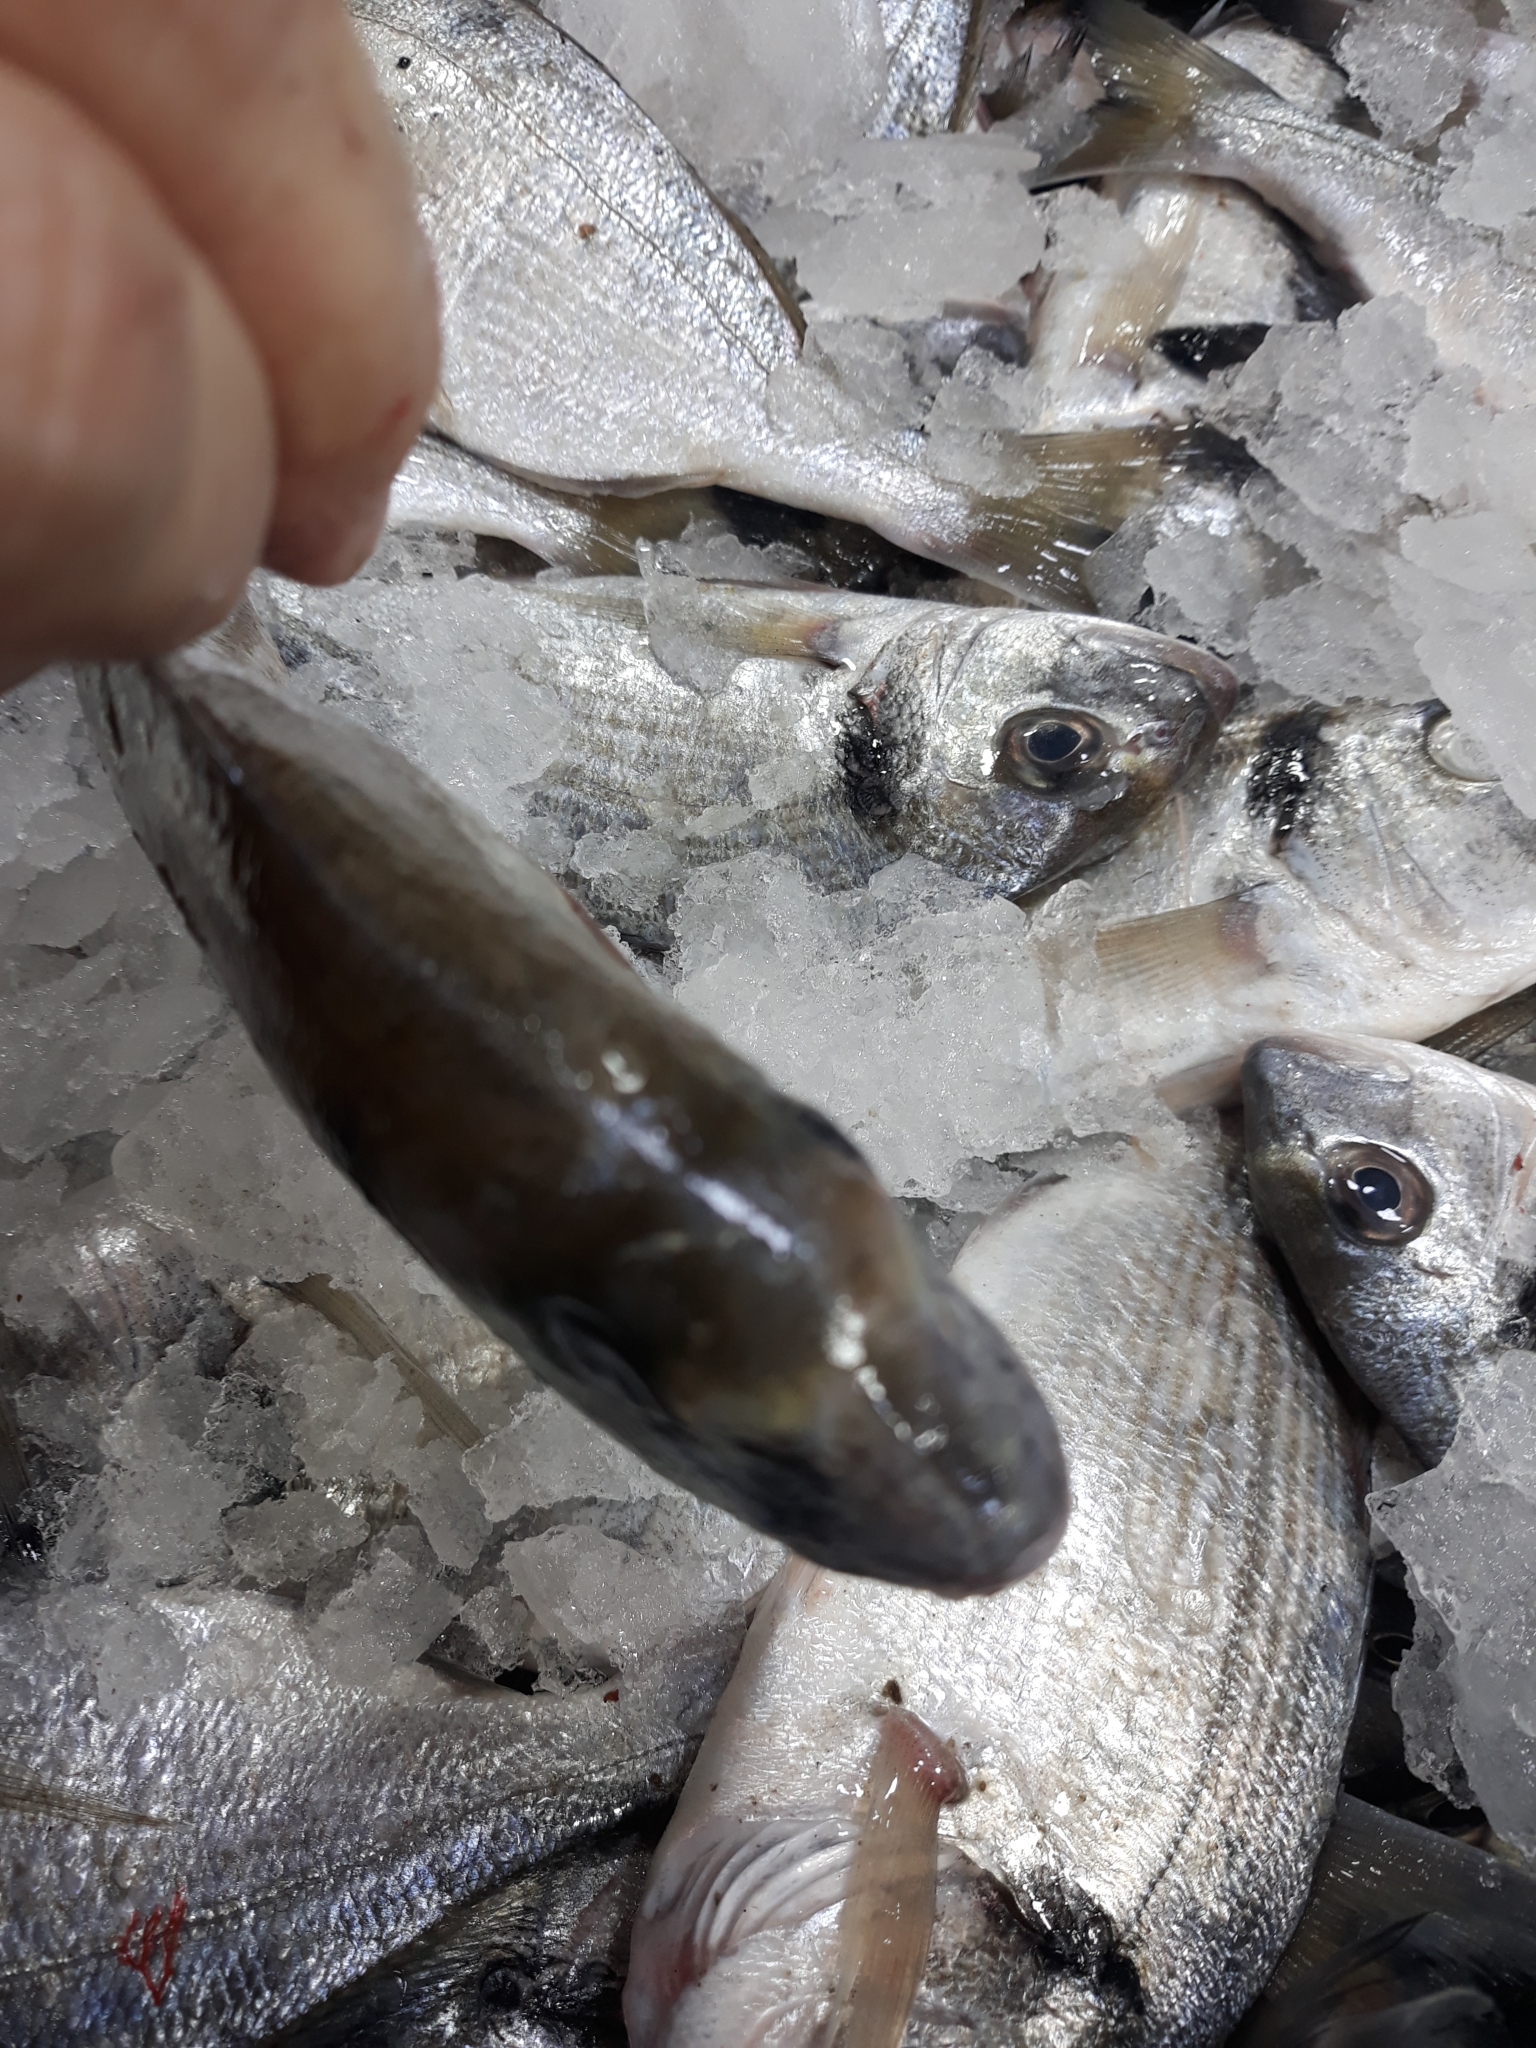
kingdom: Animalia
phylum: Chordata
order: Perciformes
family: Sparidae
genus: Sparus
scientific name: Sparus aurata
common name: Gilthead
